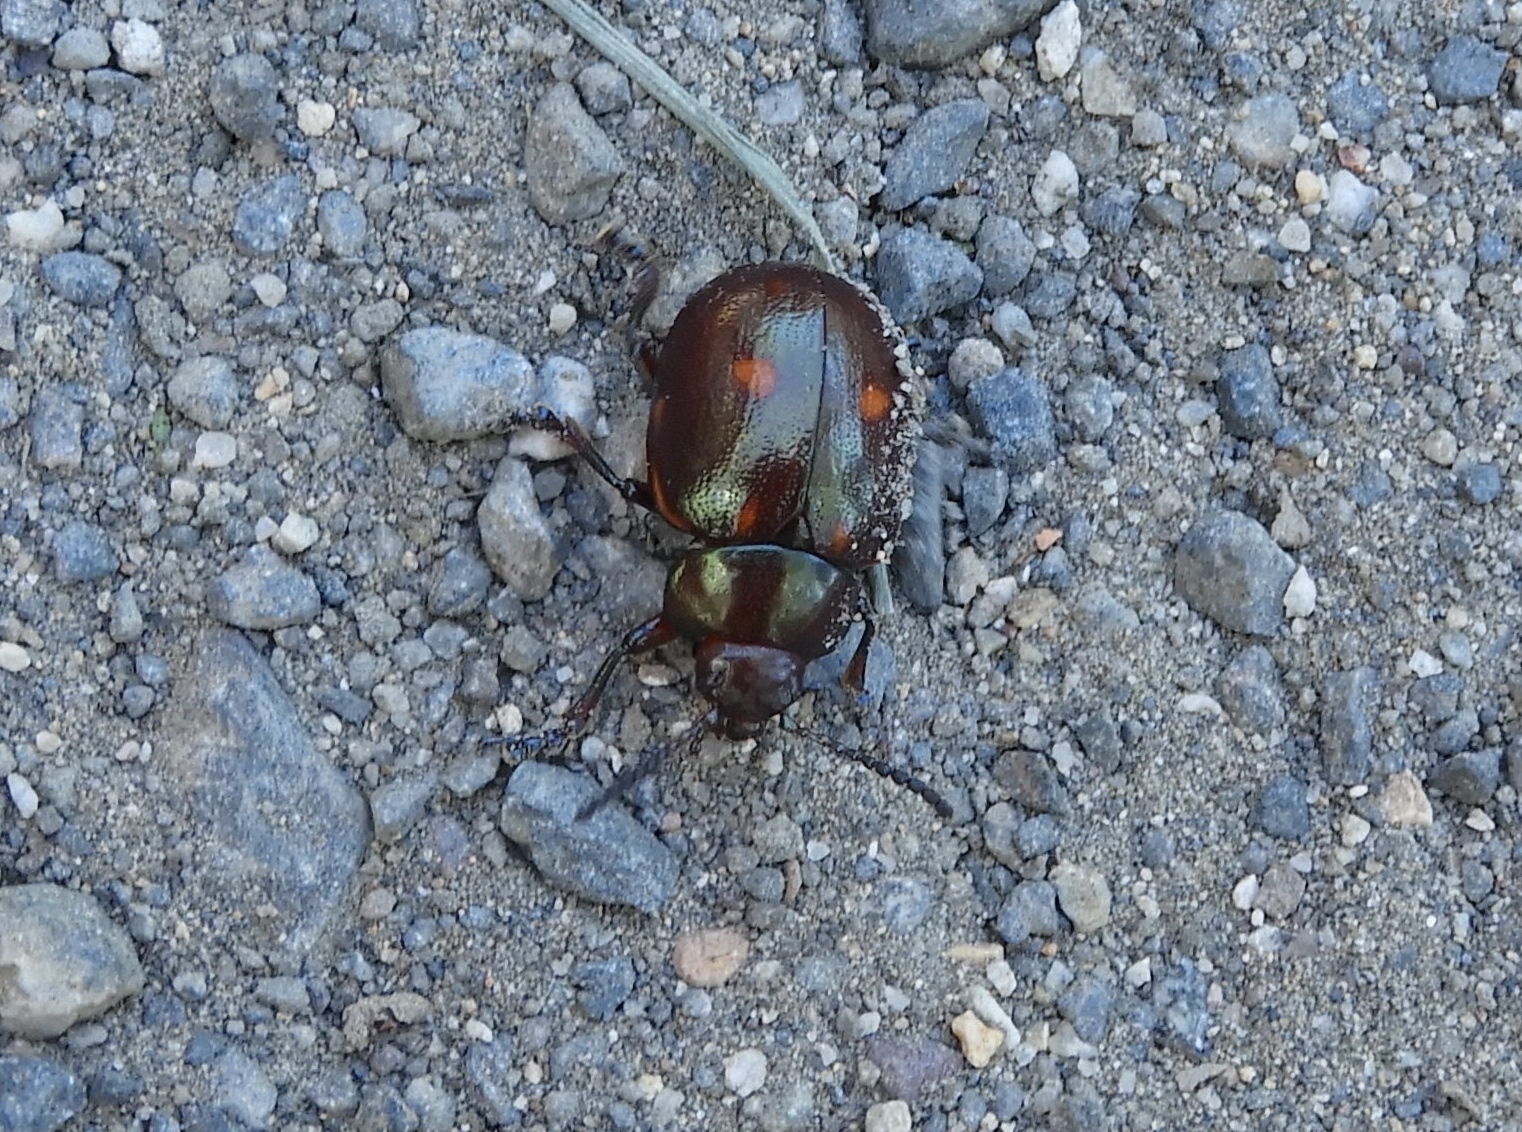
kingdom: Animalia
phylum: Arthropoda
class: Insecta
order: Coleoptera
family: Chrysomelidae
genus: Leptinotarsa
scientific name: Leptinotarsa behrensi
